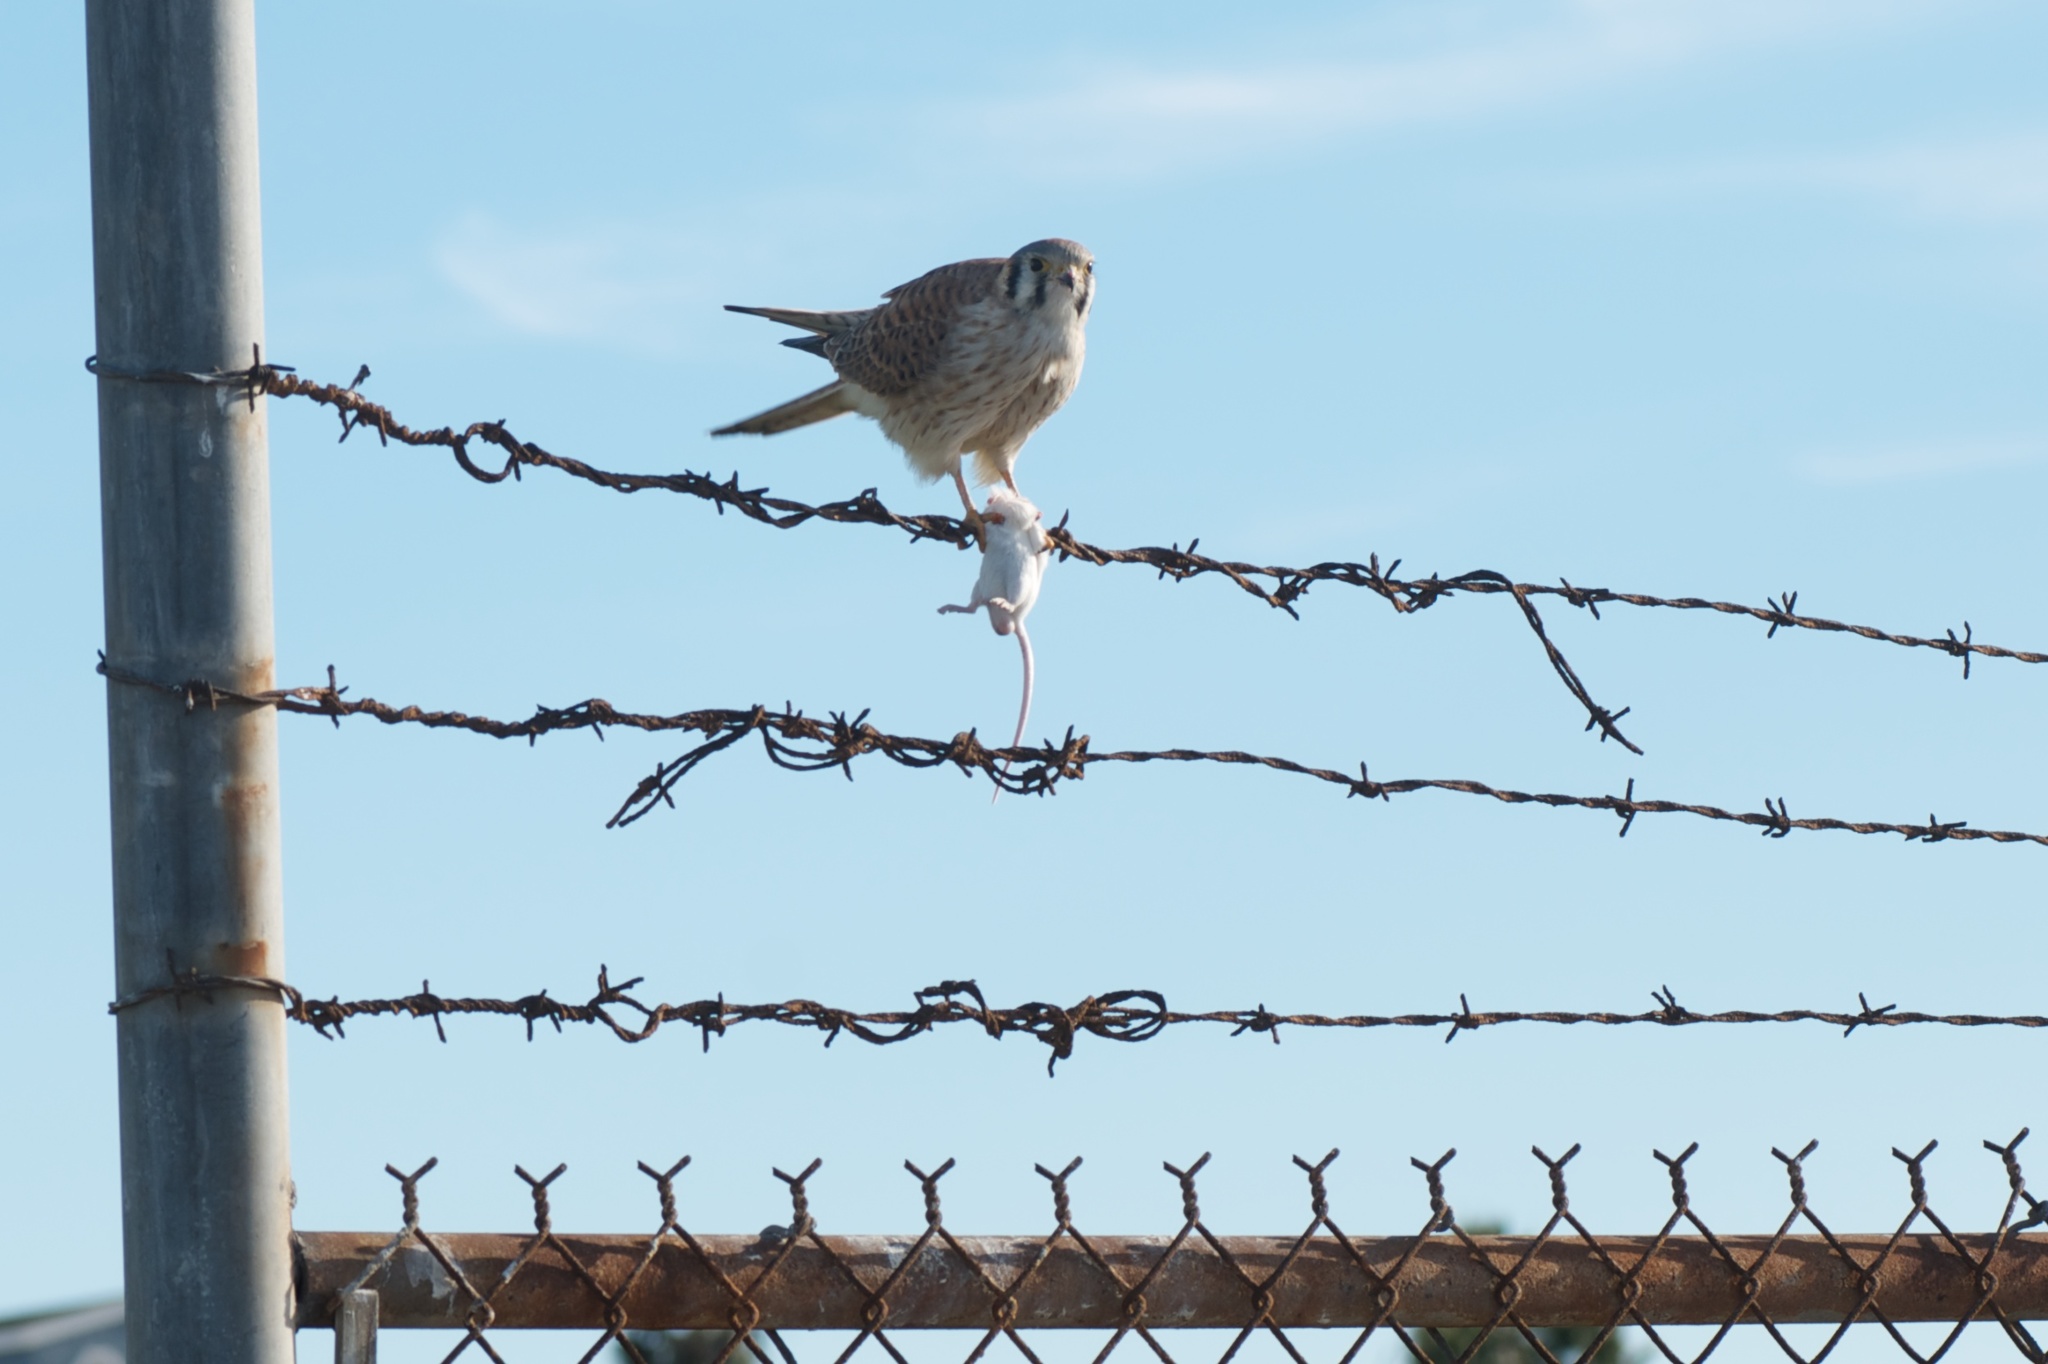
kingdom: Animalia
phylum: Chordata
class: Aves
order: Falconiformes
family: Falconidae
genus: Falco
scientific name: Falco sparverius
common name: American kestrel
